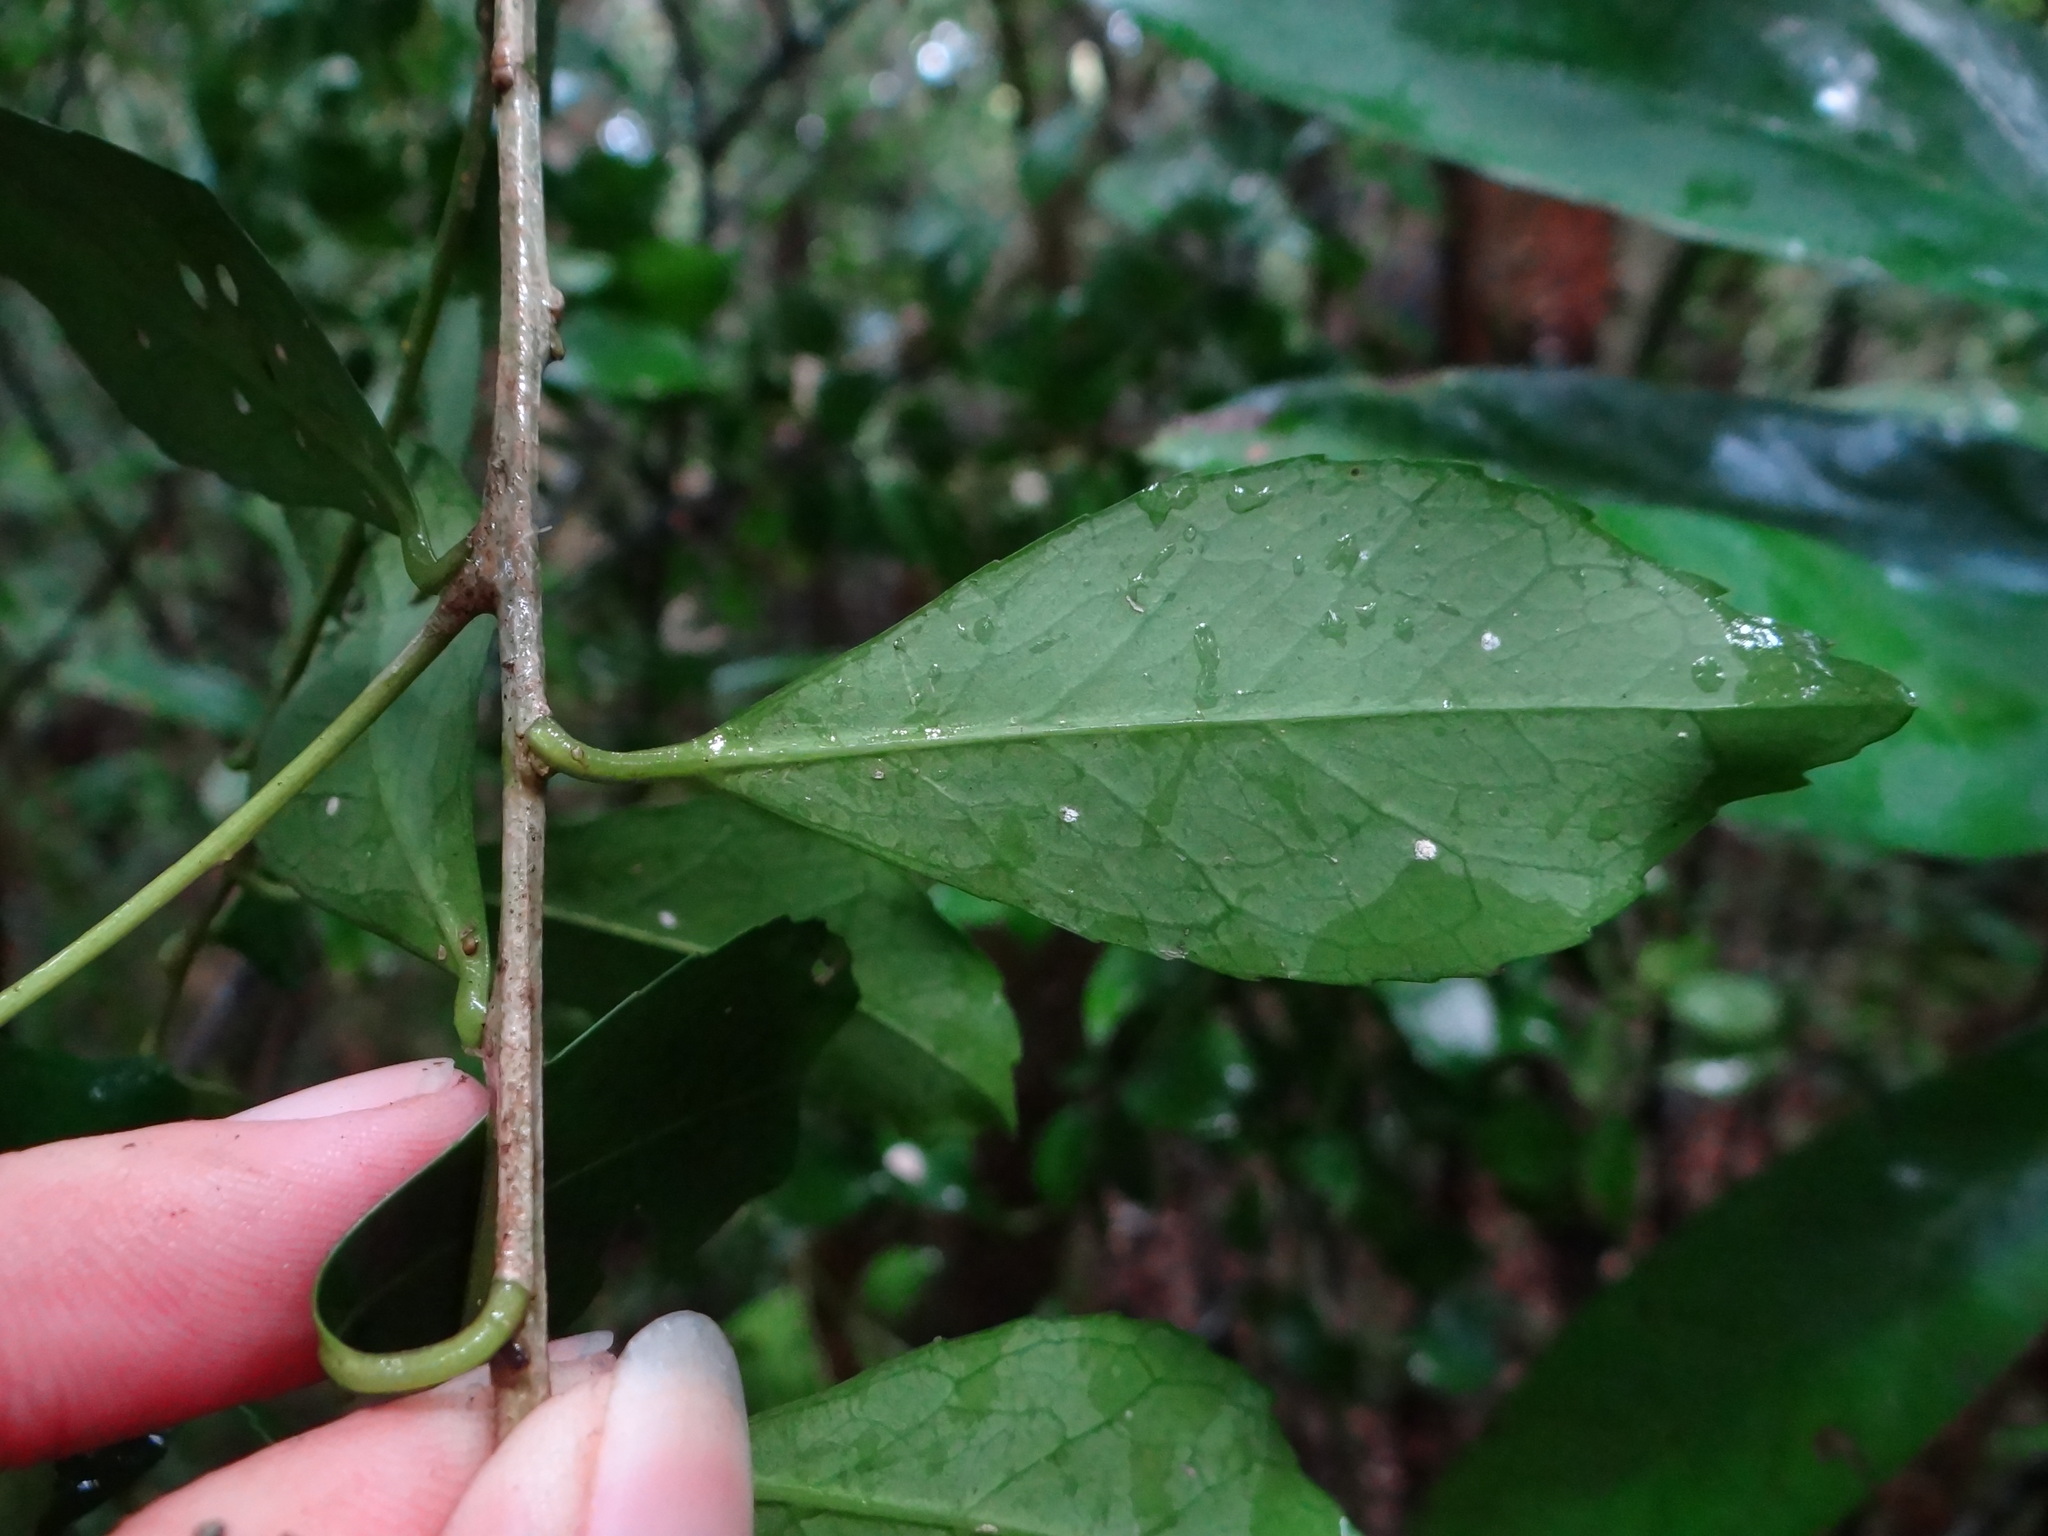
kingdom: Plantae
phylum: Tracheophyta
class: Magnoliopsida
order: Aquifoliales
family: Aquifoliaceae
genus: Ilex
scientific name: Ilex uraiensis
